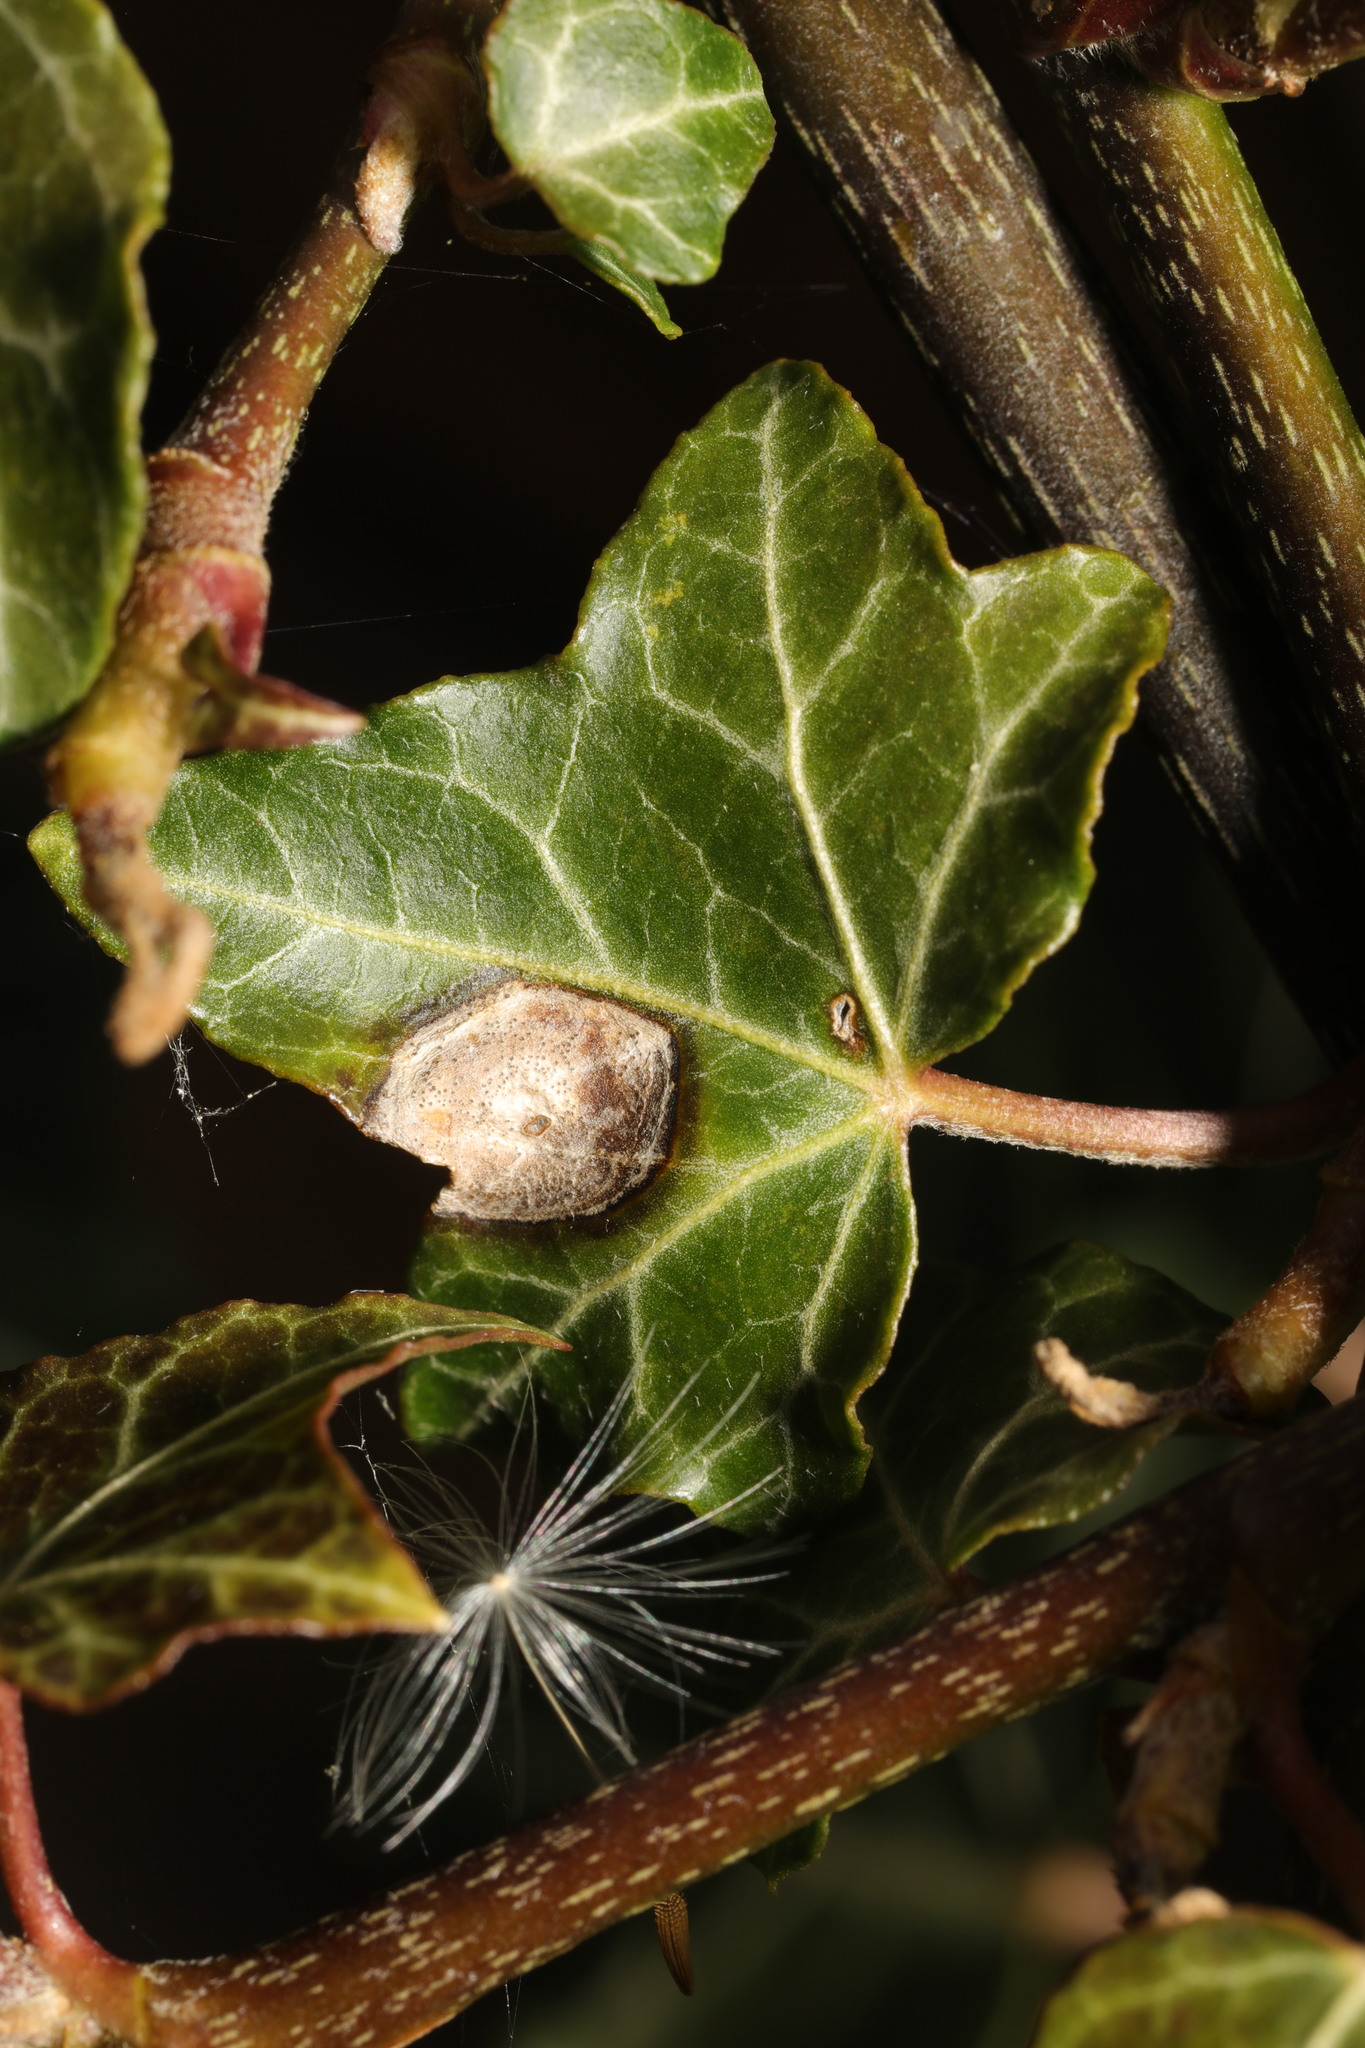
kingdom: Fungi
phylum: Ascomycota
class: Dothideomycetes
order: Pleosporales
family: Didymellaceae
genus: Boeremia
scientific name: Boeremia hedericola
